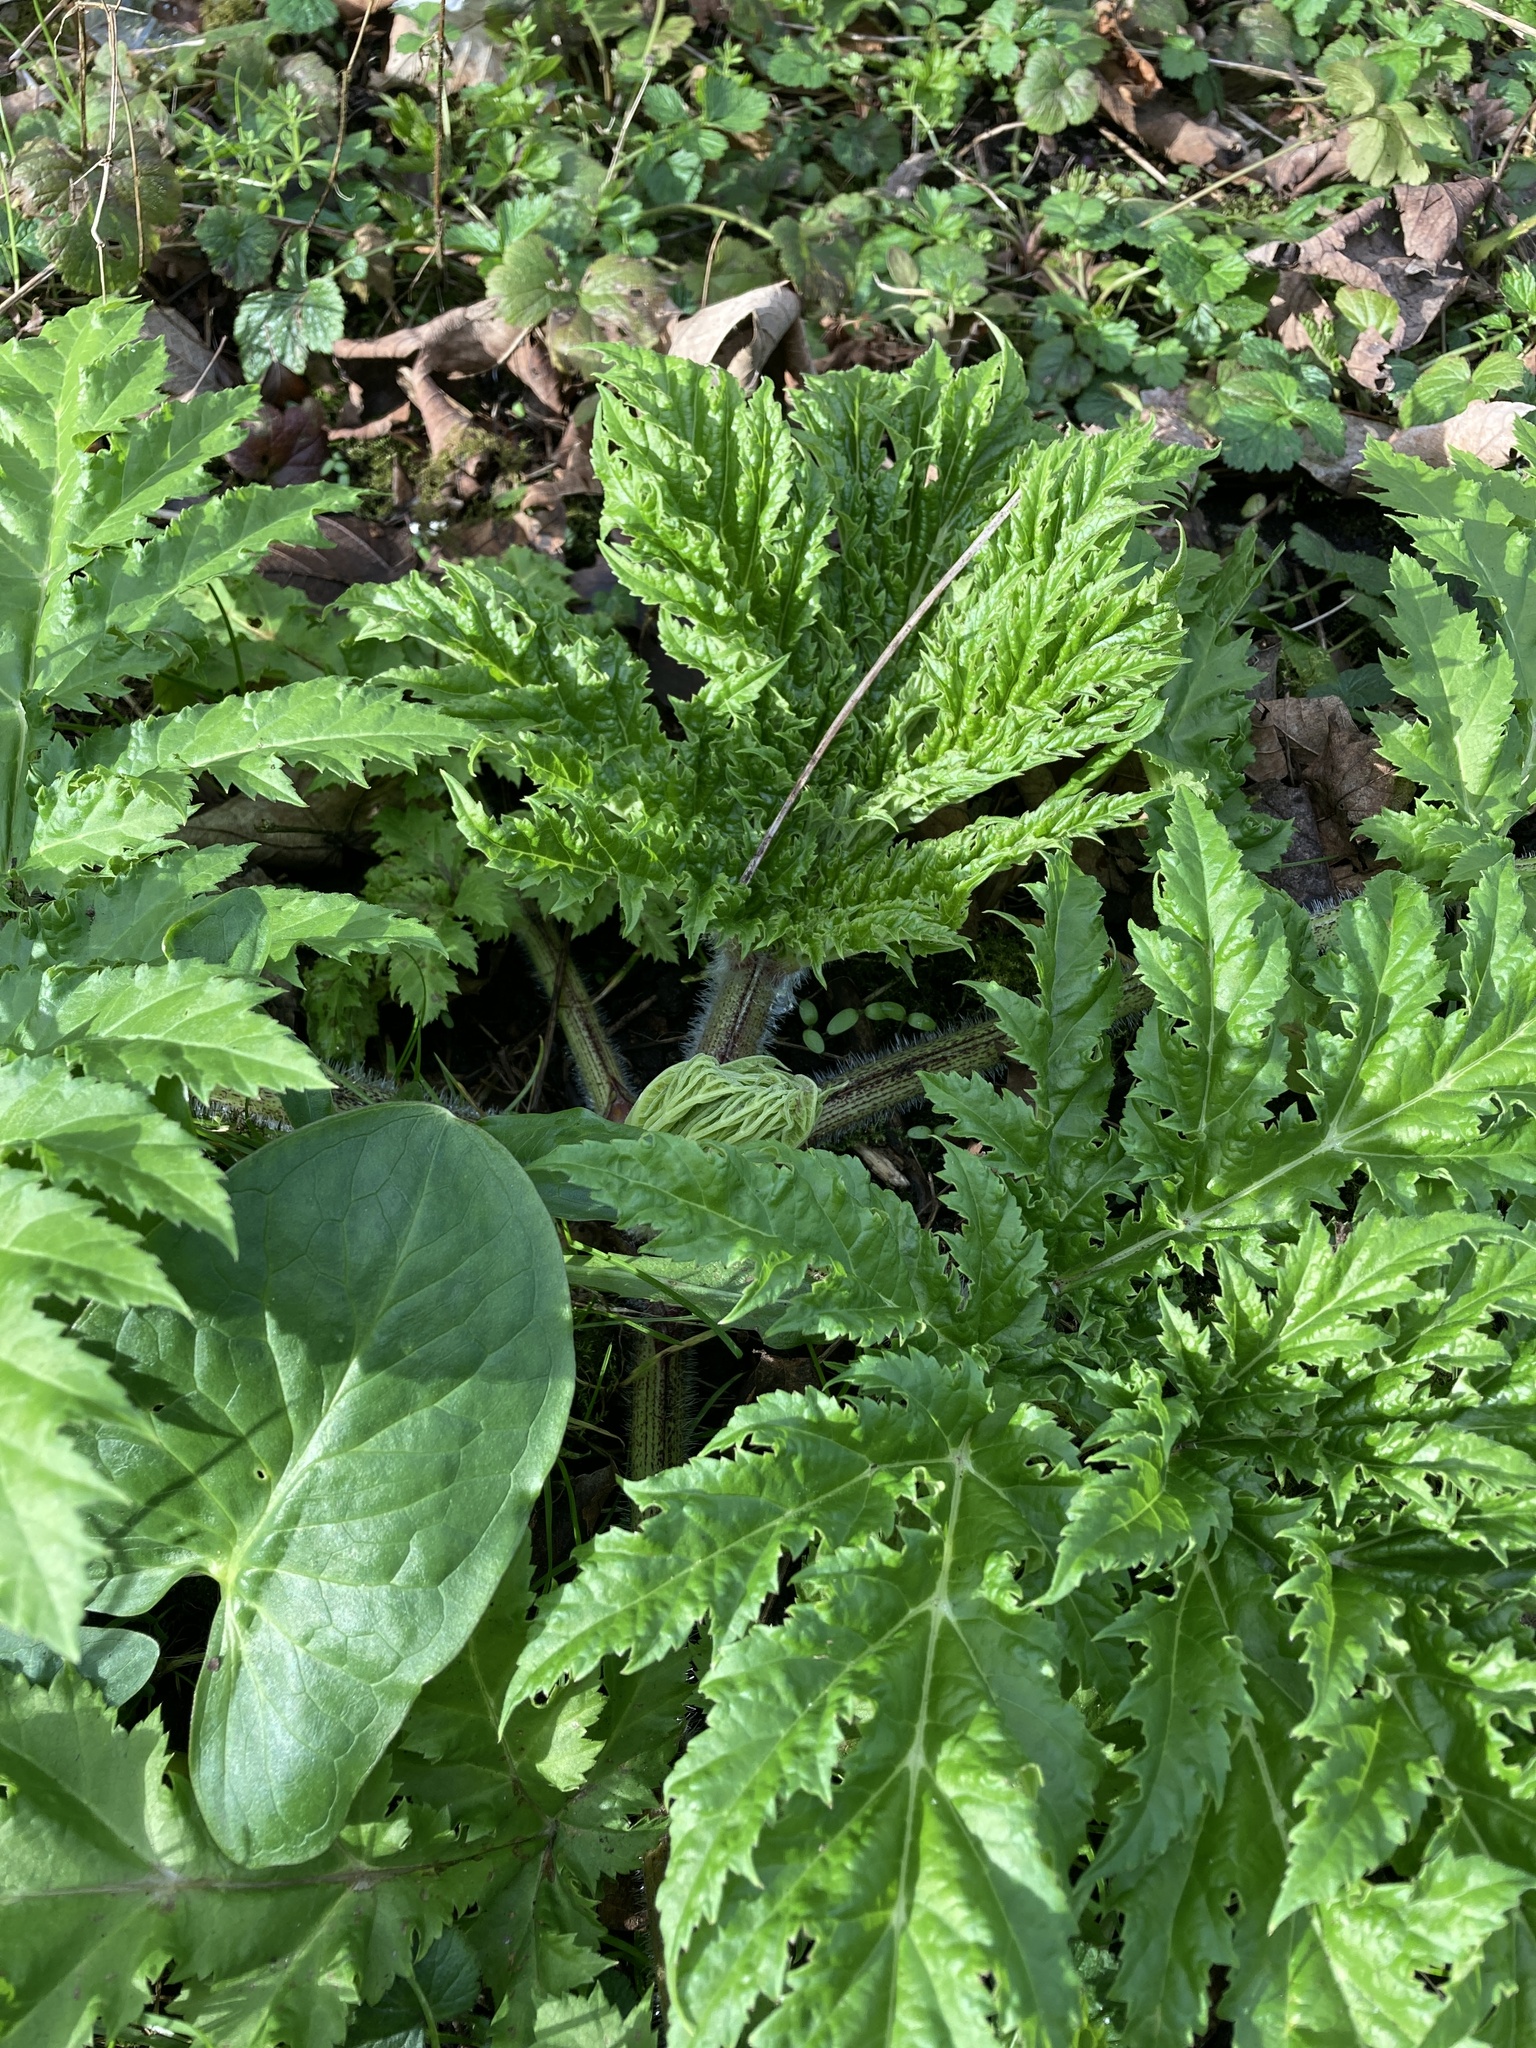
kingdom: Plantae
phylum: Tracheophyta
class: Magnoliopsida
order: Apiales
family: Apiaceae
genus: Heracleum
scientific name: Heracleum mantegazzianum
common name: Giant hogweed
